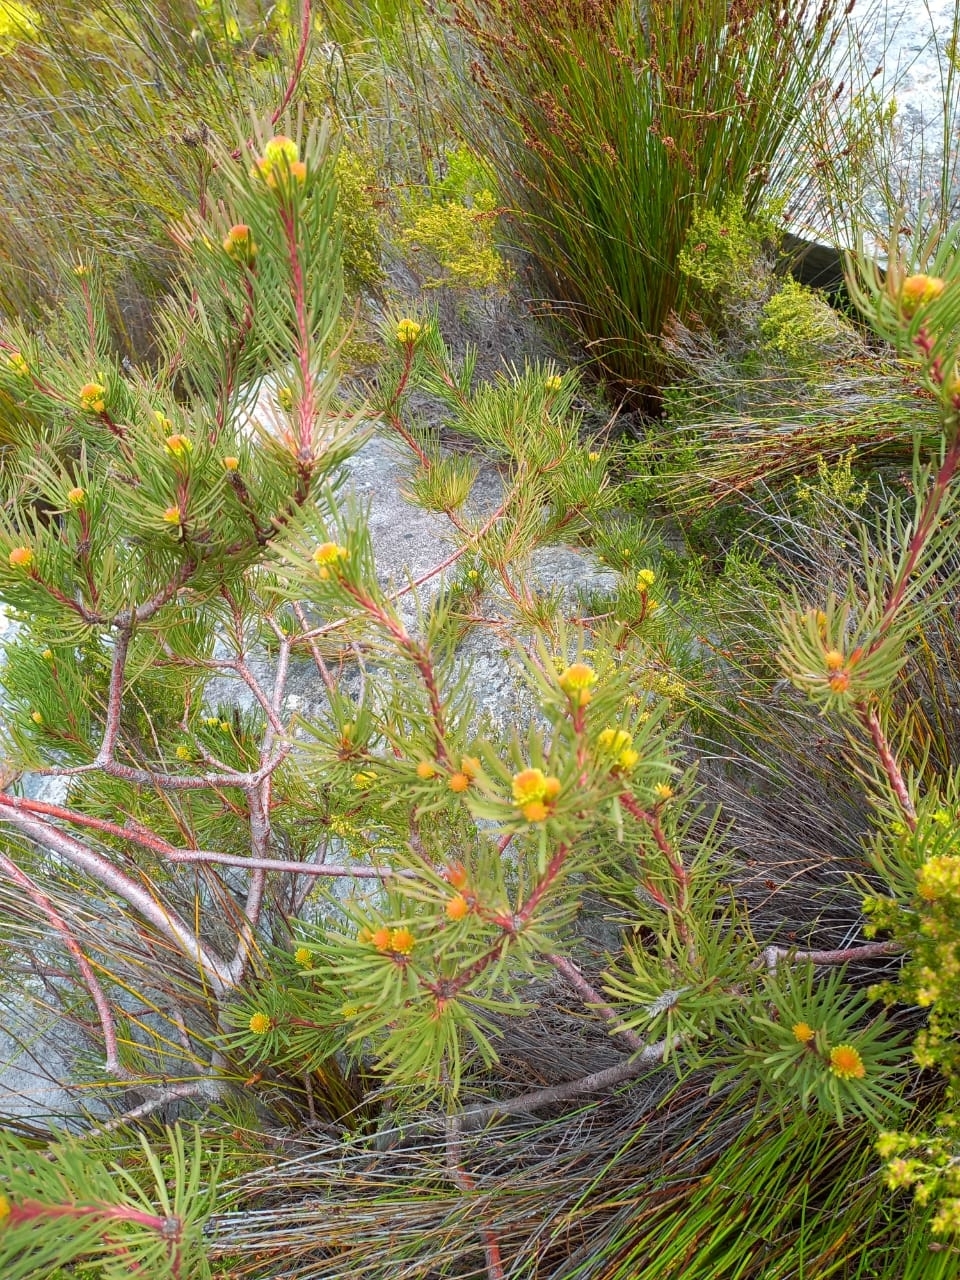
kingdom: Plantae
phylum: Tracheophyta
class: Magnoliopsida
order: Proteales
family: Proteaceae
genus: Aulax
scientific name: Aulax cancellata
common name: Channel-leaf featherbush
